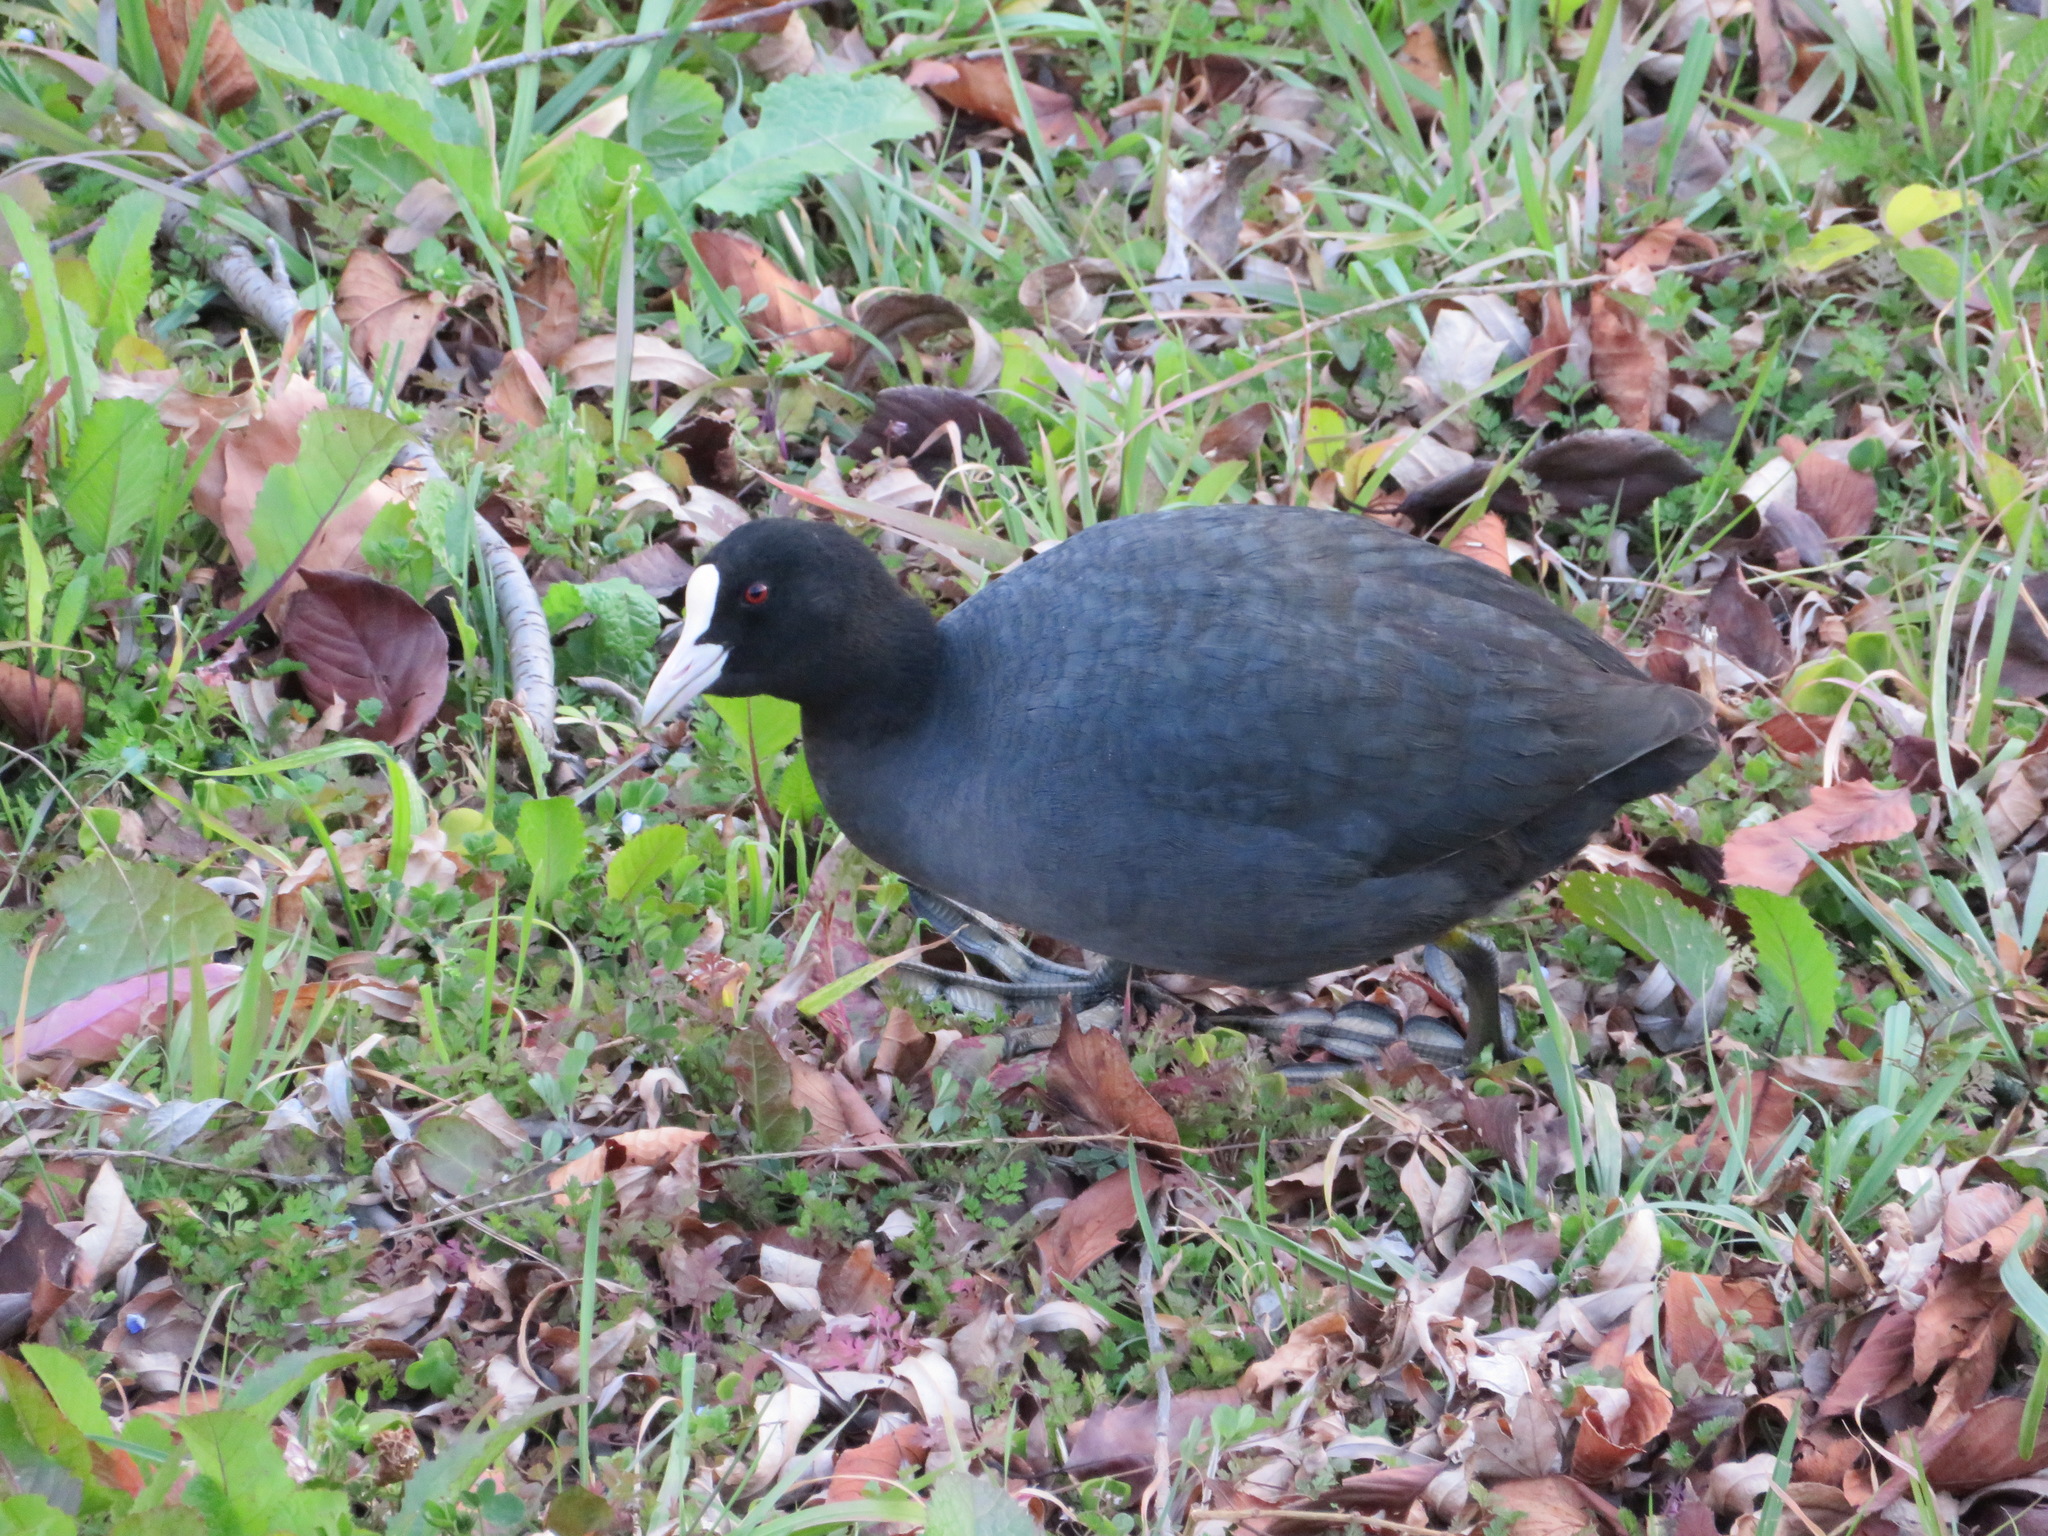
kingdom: Animalia
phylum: Chordata
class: Aves
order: Gruiformes
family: Rallidae
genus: Fulica
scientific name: Fulica atra
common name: Eurasian coot
